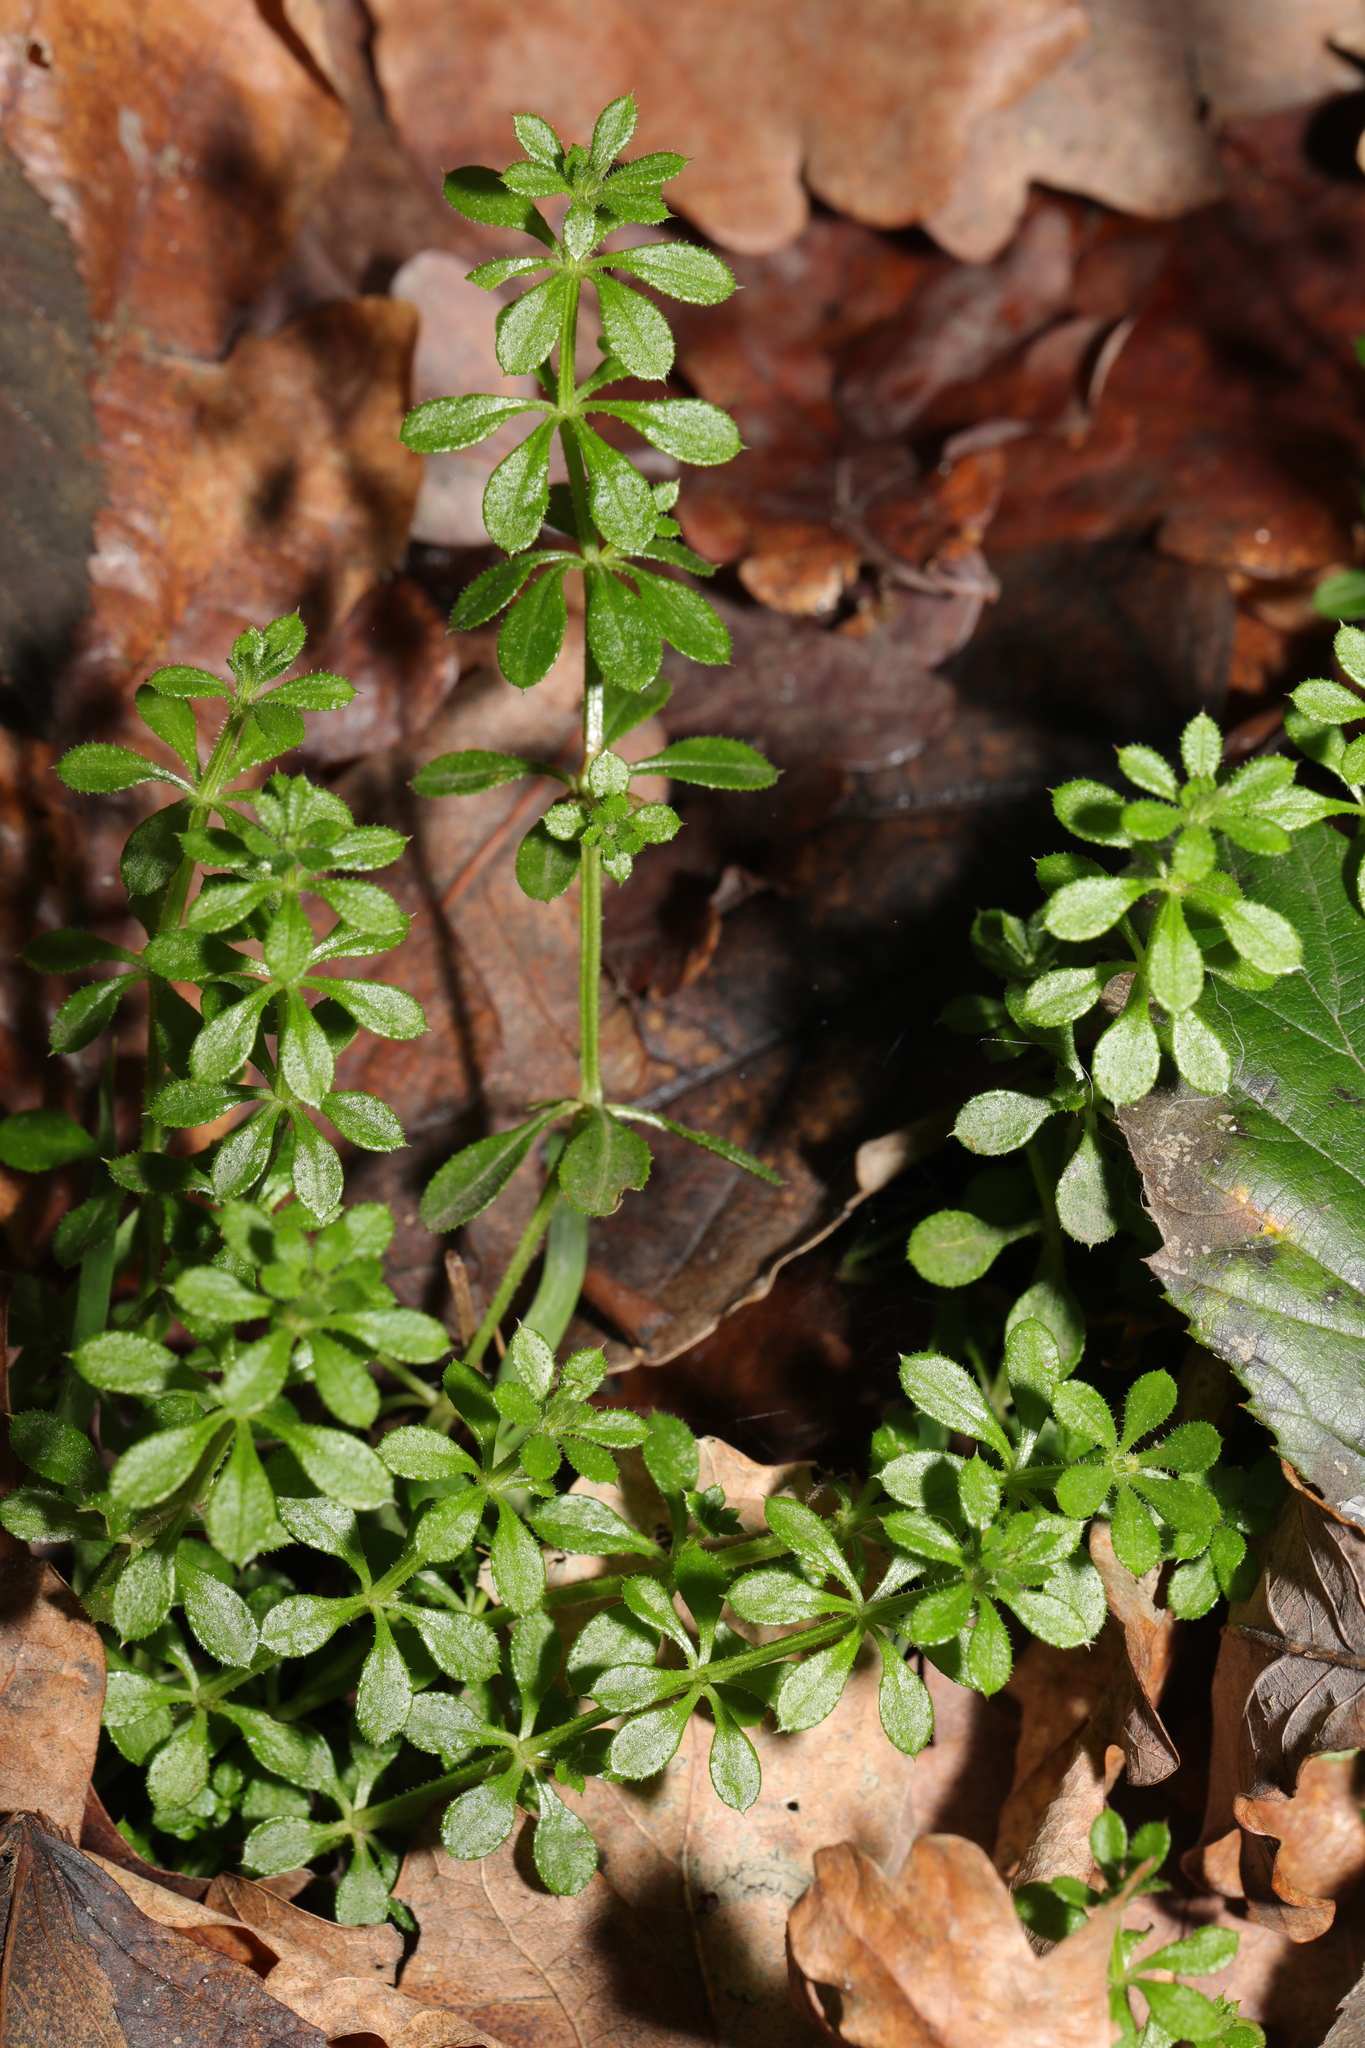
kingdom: Plantae
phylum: Tracheophyta
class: Magnoliopsida
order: Gentianales
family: Rubiaceae
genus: Galium
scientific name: Galium aparine
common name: Cleavers
